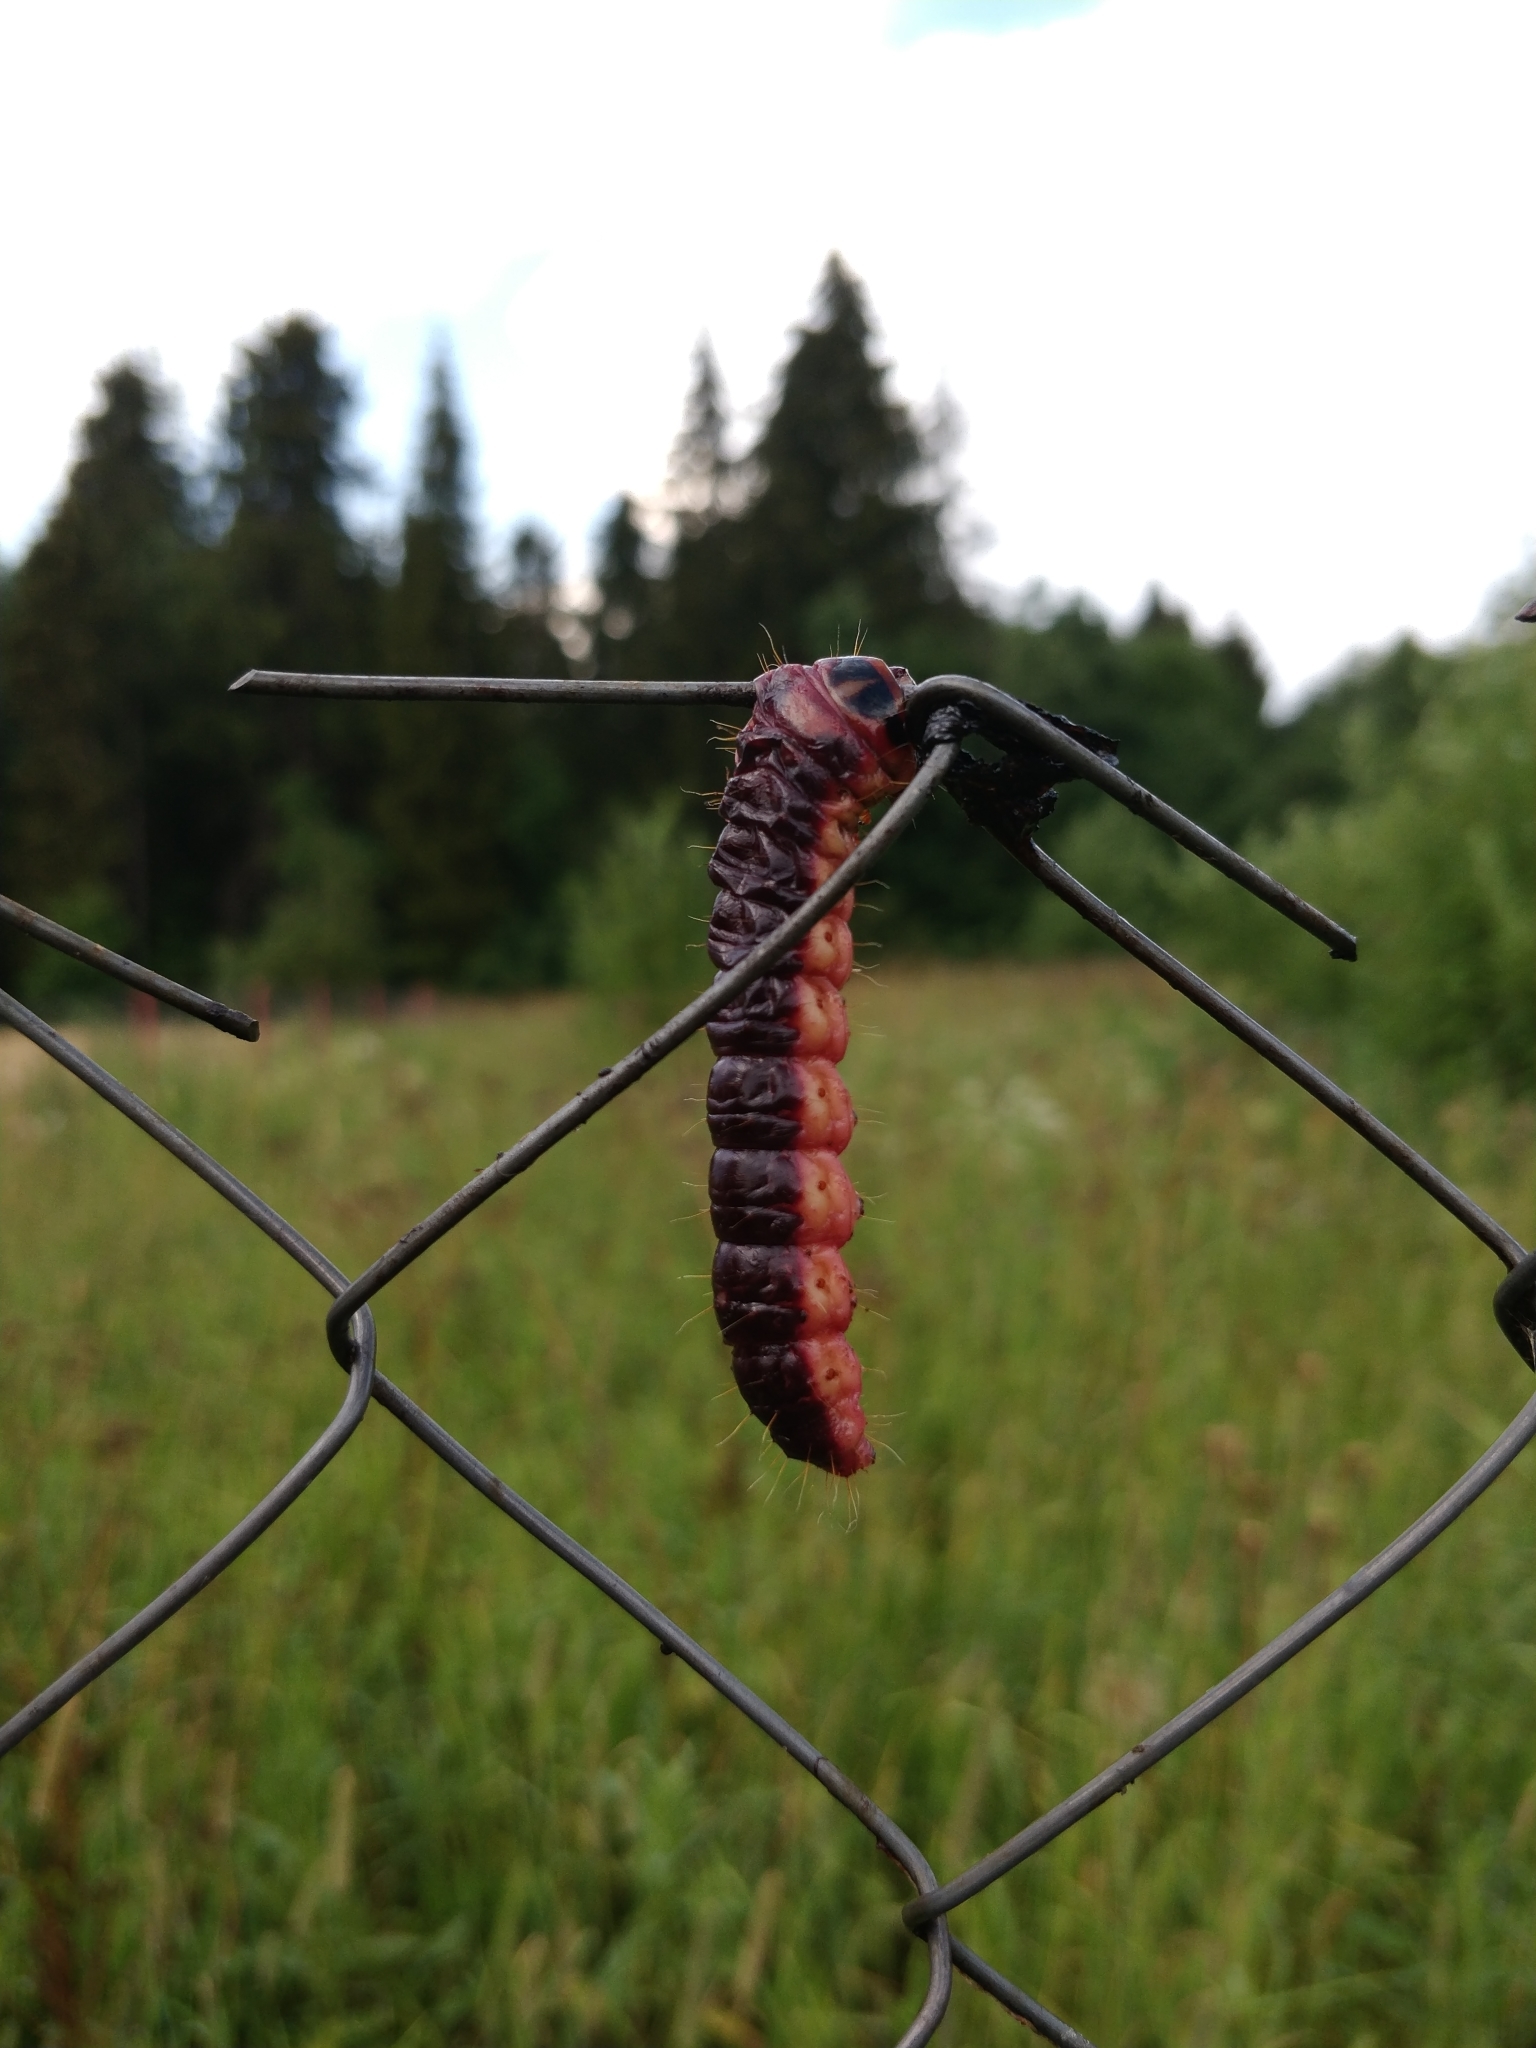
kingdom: Animalia
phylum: Arthropoda
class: Insecta
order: Lepidoptera
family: Cossidae
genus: Cossus
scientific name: Cossus cossus
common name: Goat moth
